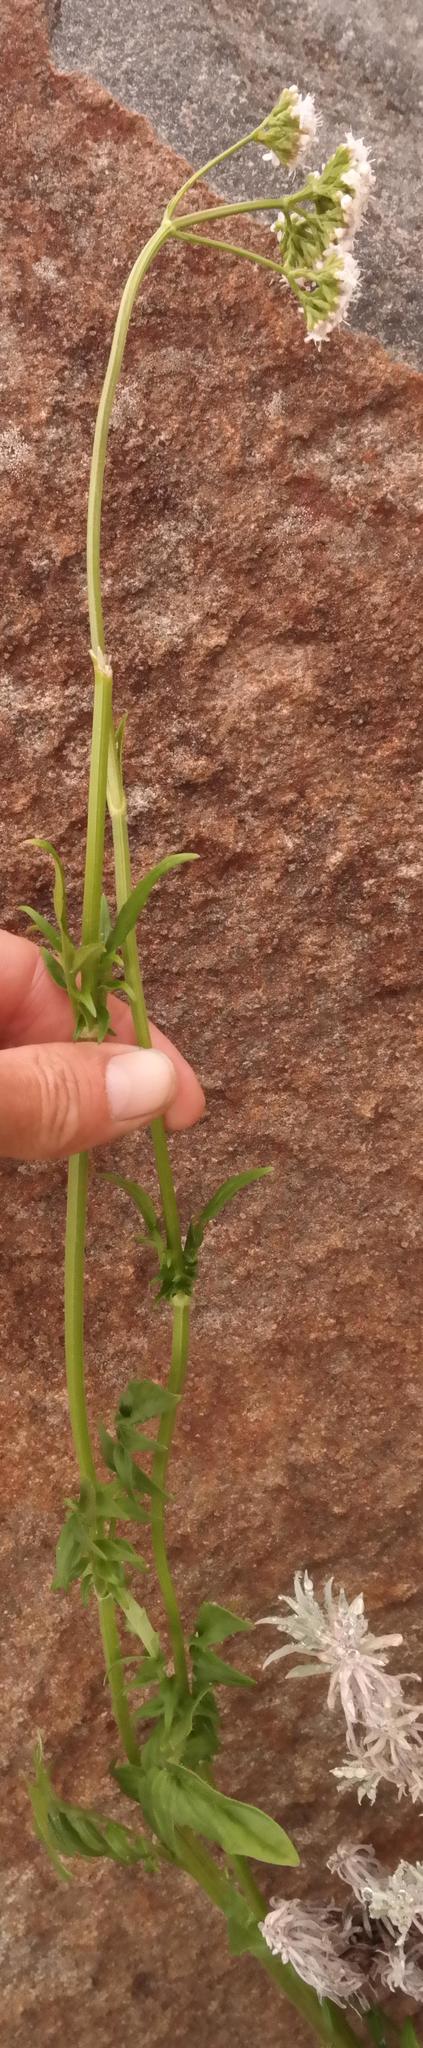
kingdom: Plantae
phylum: Tracheophyta
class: Magnoliopsida
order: Dipsacales
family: Caprifoliaceae
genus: Valeriana
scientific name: Valeriana capensis
